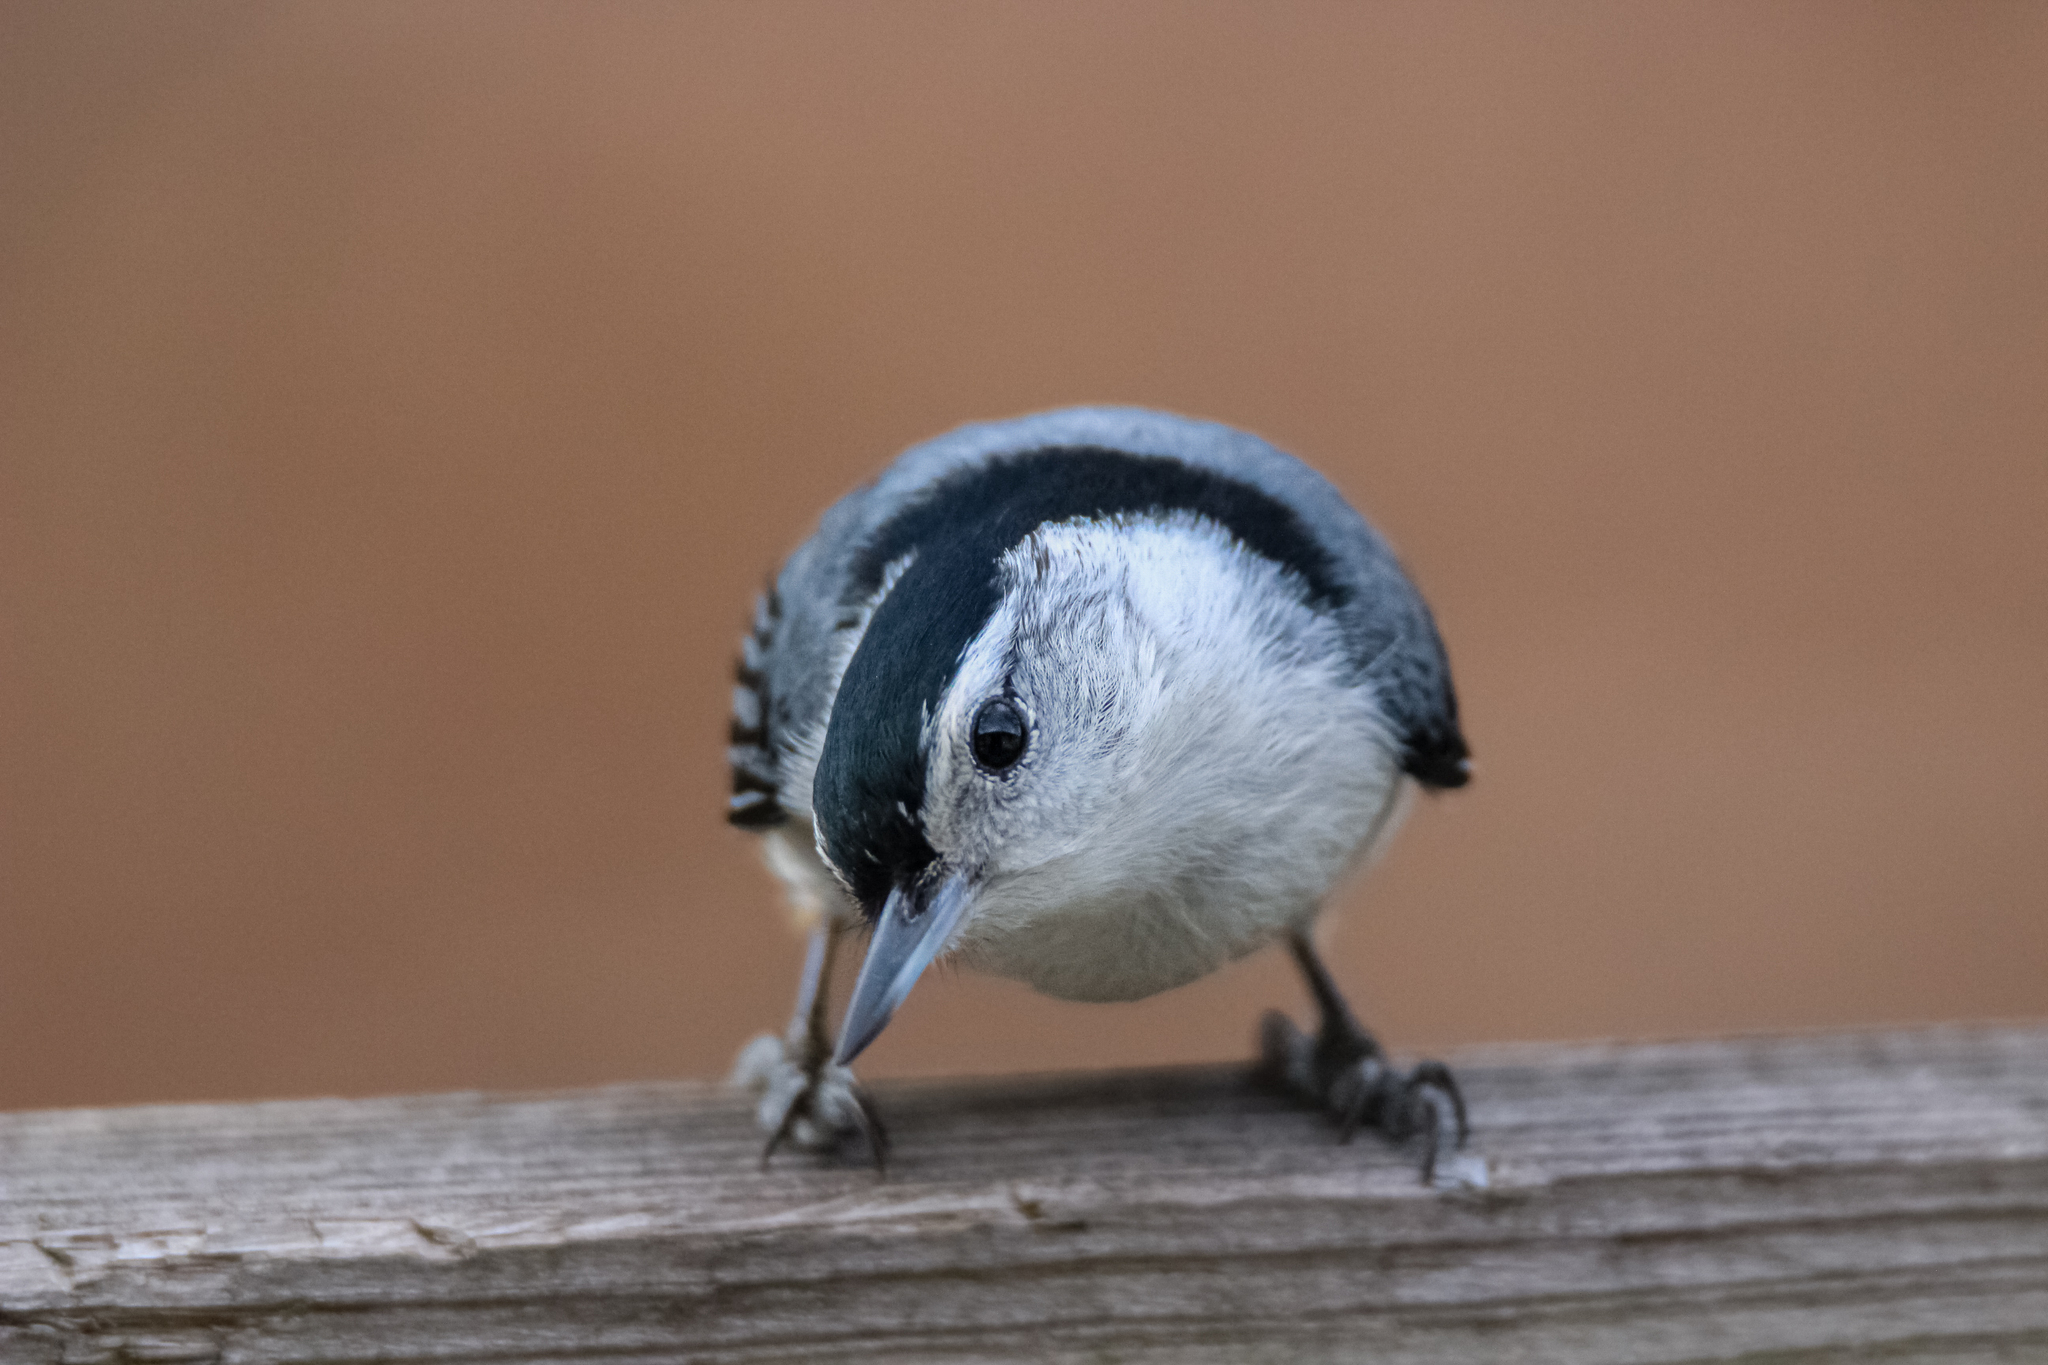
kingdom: Animalia
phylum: Chordata
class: Aves
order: Passeriformes
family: Sittidae
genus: Sitta
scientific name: Sitta carolinensis
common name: White-breasted nuthatch
